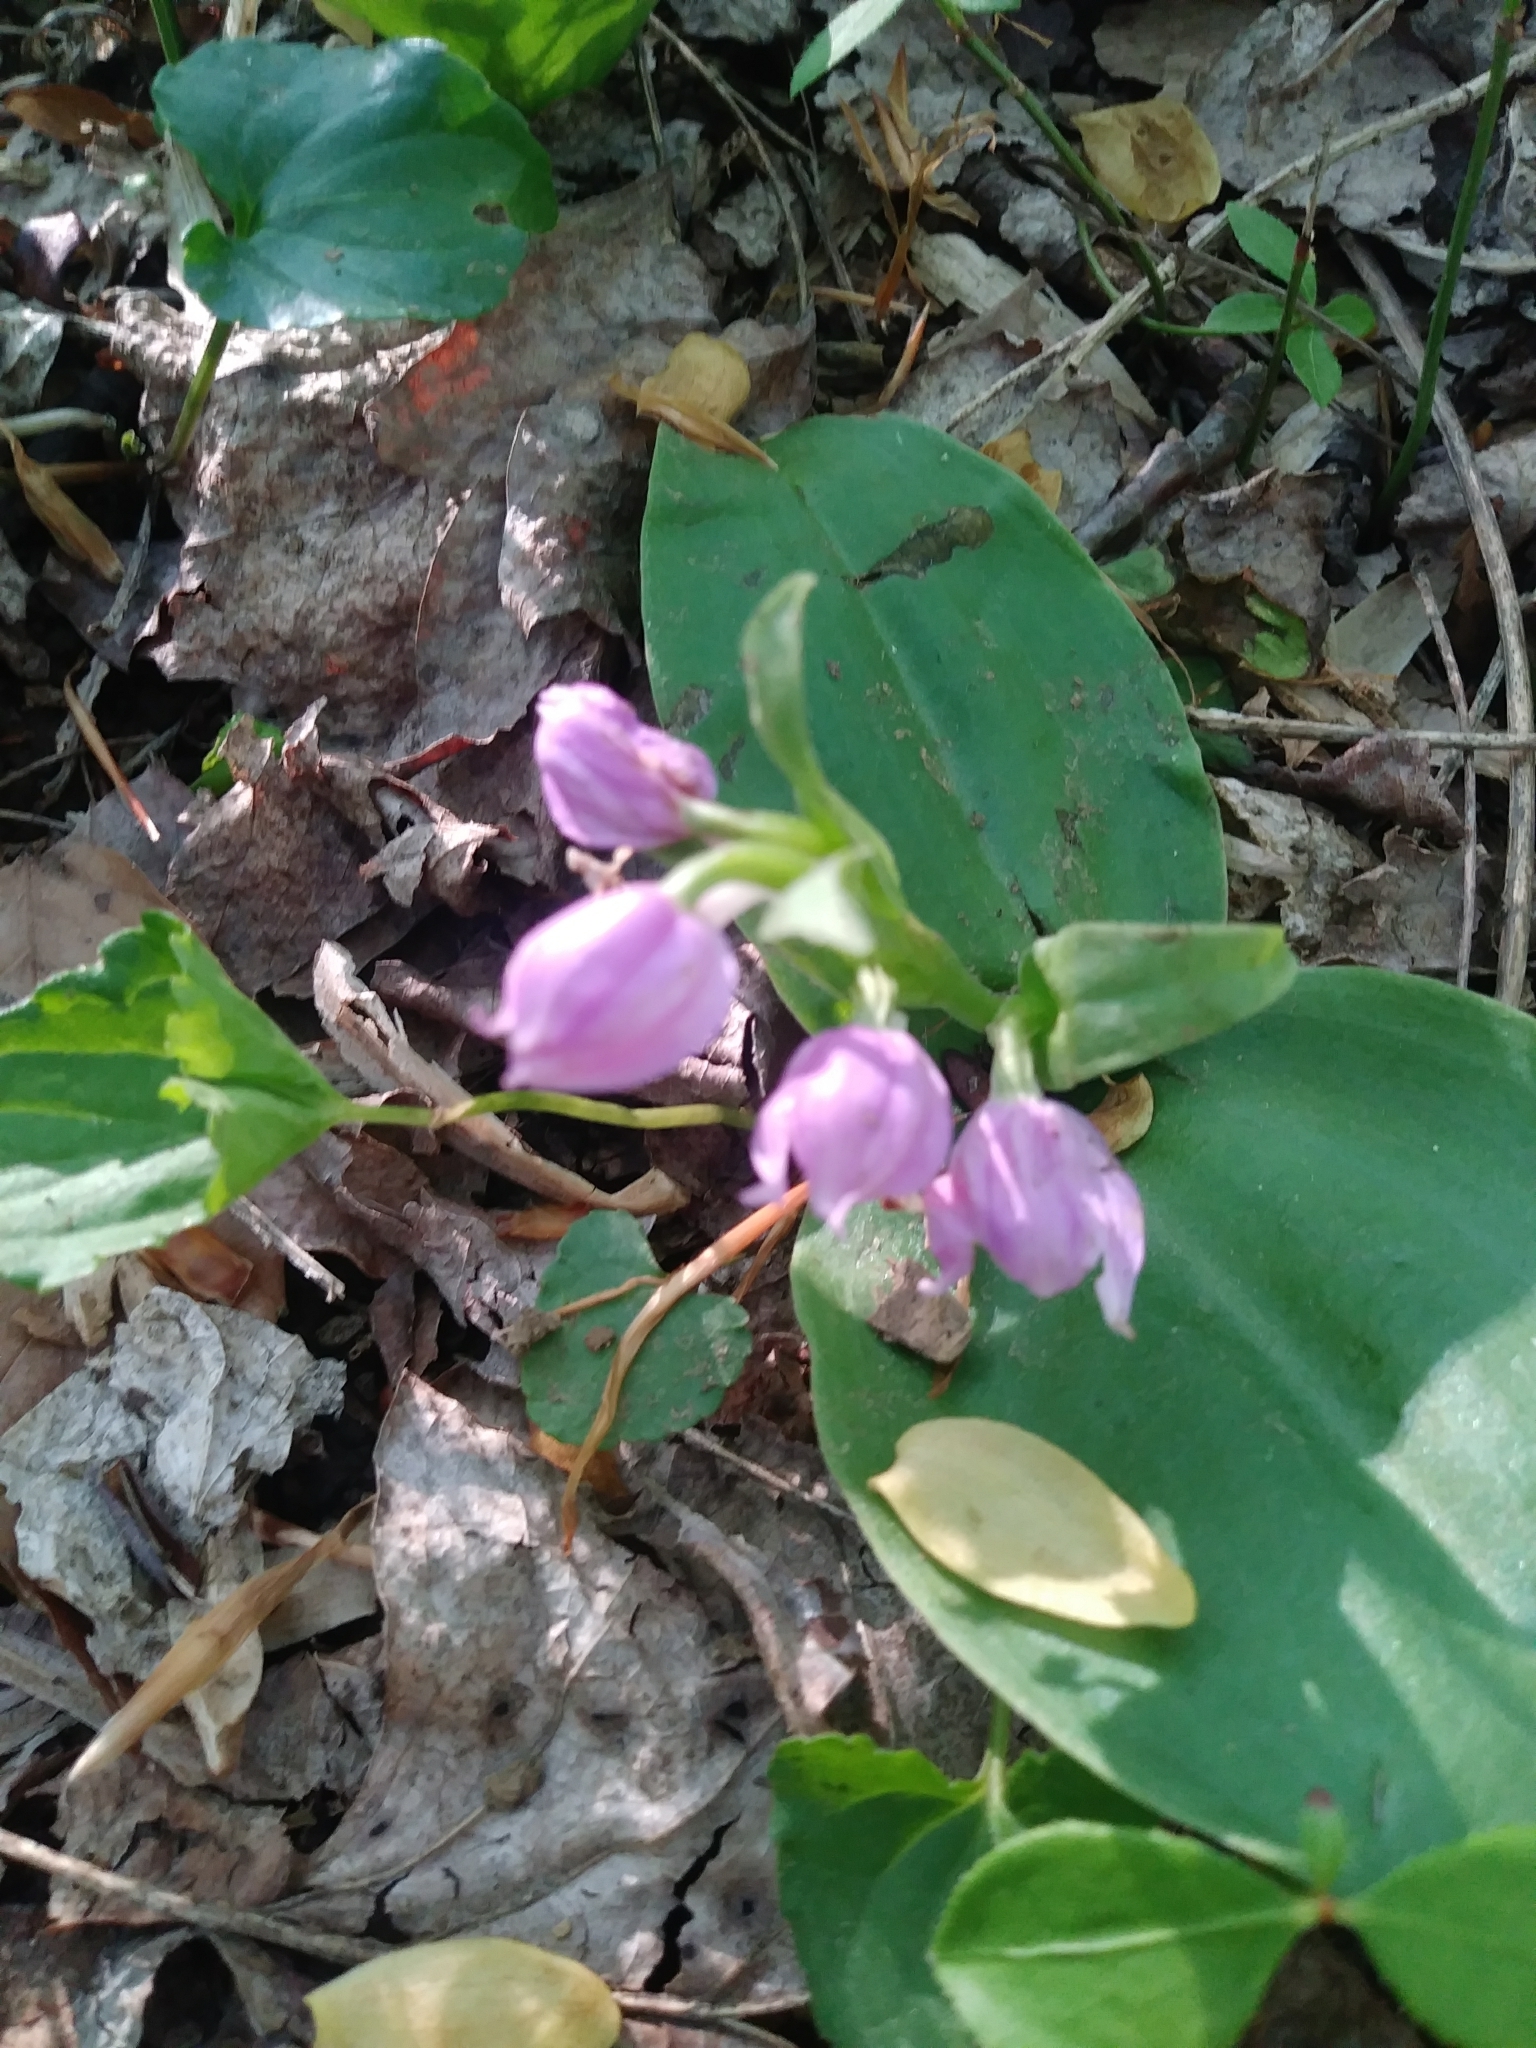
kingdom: Plantae
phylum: Tracheophyta
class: Liliopsida
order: Asparagales
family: Orchidaceae
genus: Galearis
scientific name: Galearis spectabilis
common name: Purple-hooded orchis
